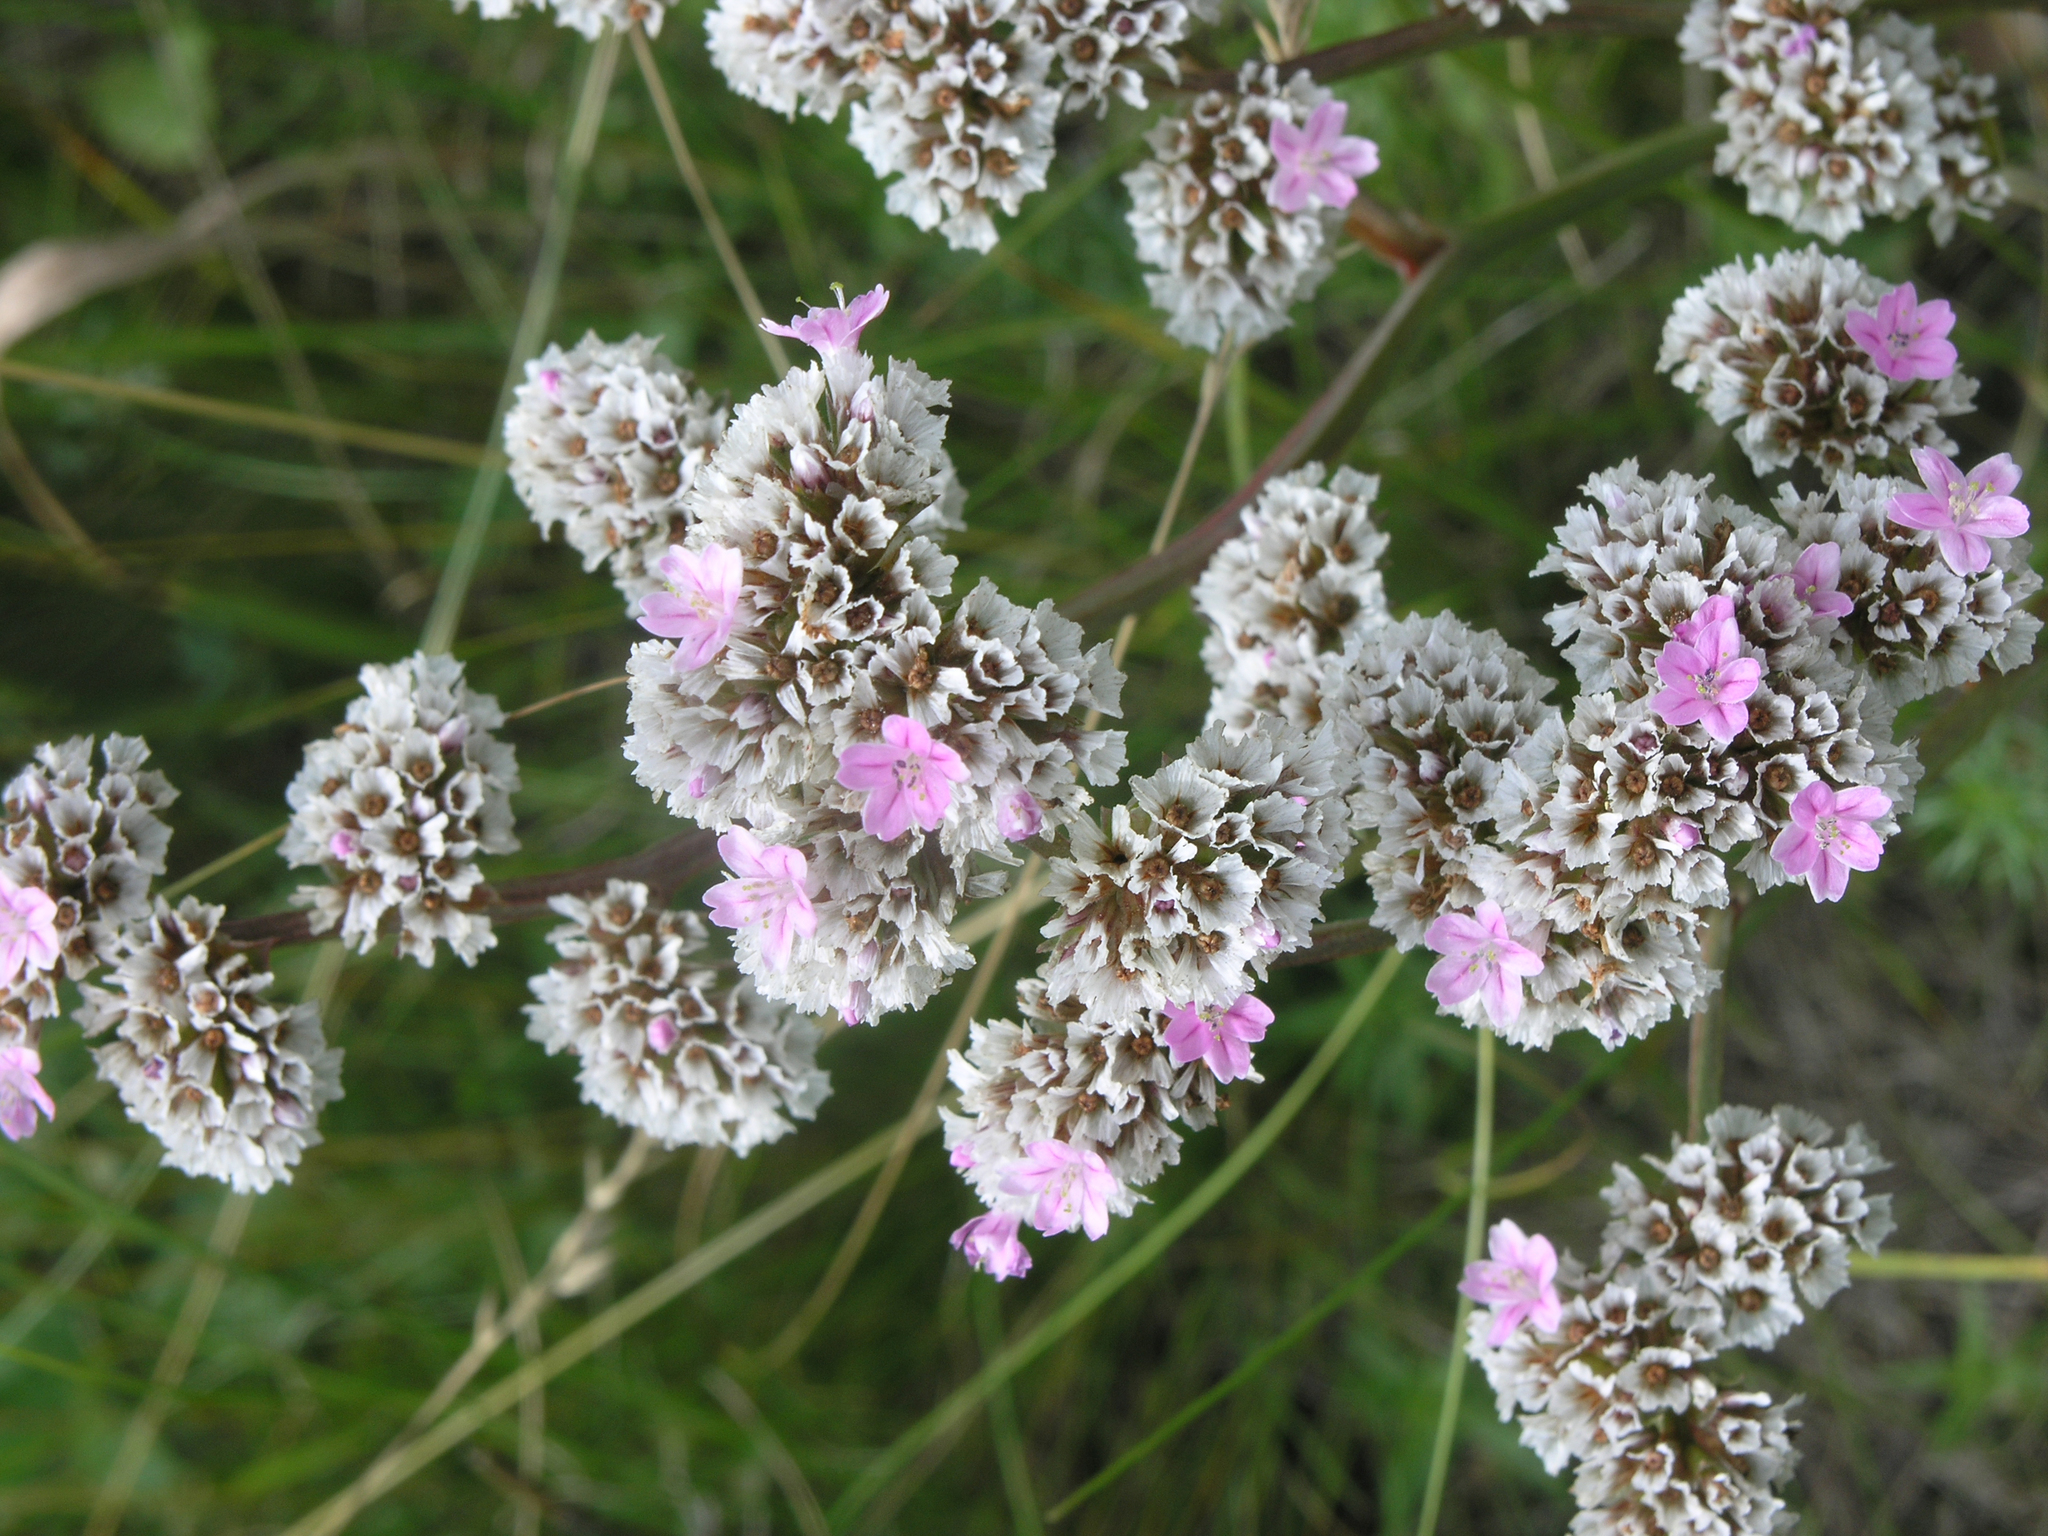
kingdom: Plantae
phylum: Tracheophyta
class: Magnoliopsida
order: Caryophyllales
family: Plumbaginaceae
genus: Goniolimon
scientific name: Goniolimon speciosum
